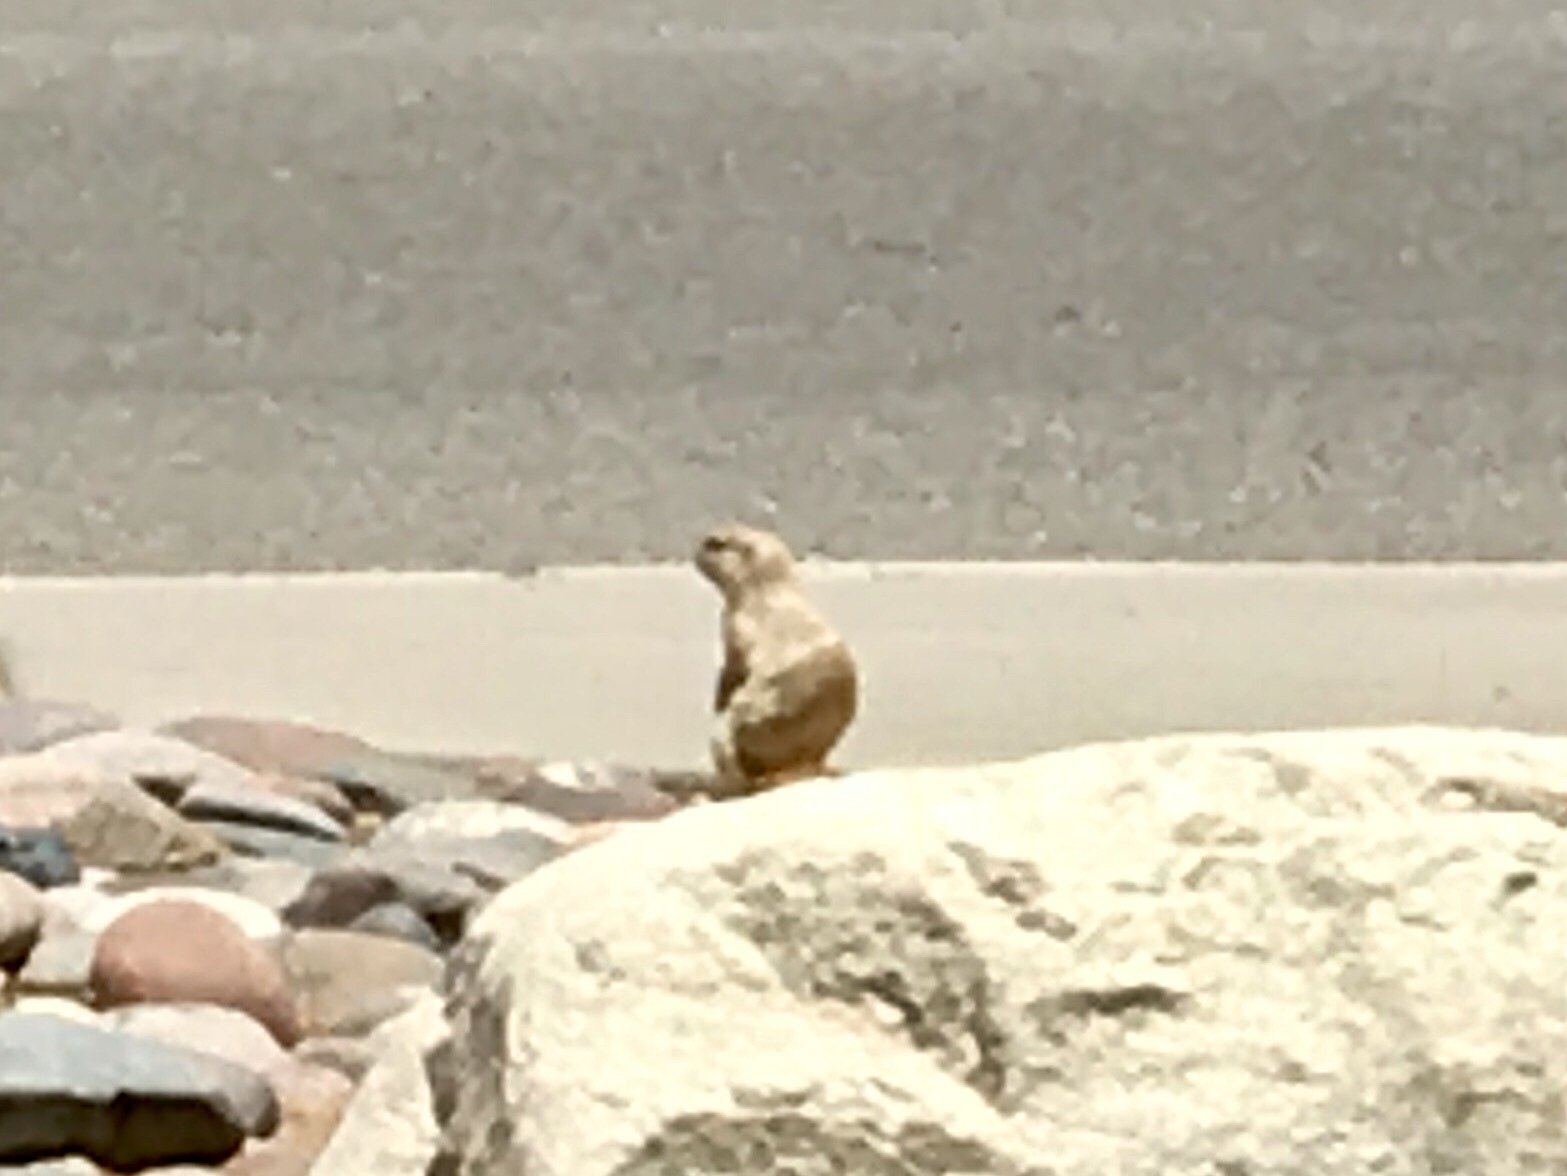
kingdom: Animalia
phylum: Chordata
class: Mammalia
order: Rodentia
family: Sciuridae
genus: Xerospermophilus
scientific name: Xerospermophilus tereticaudus
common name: Round-tailed ground squirrel
